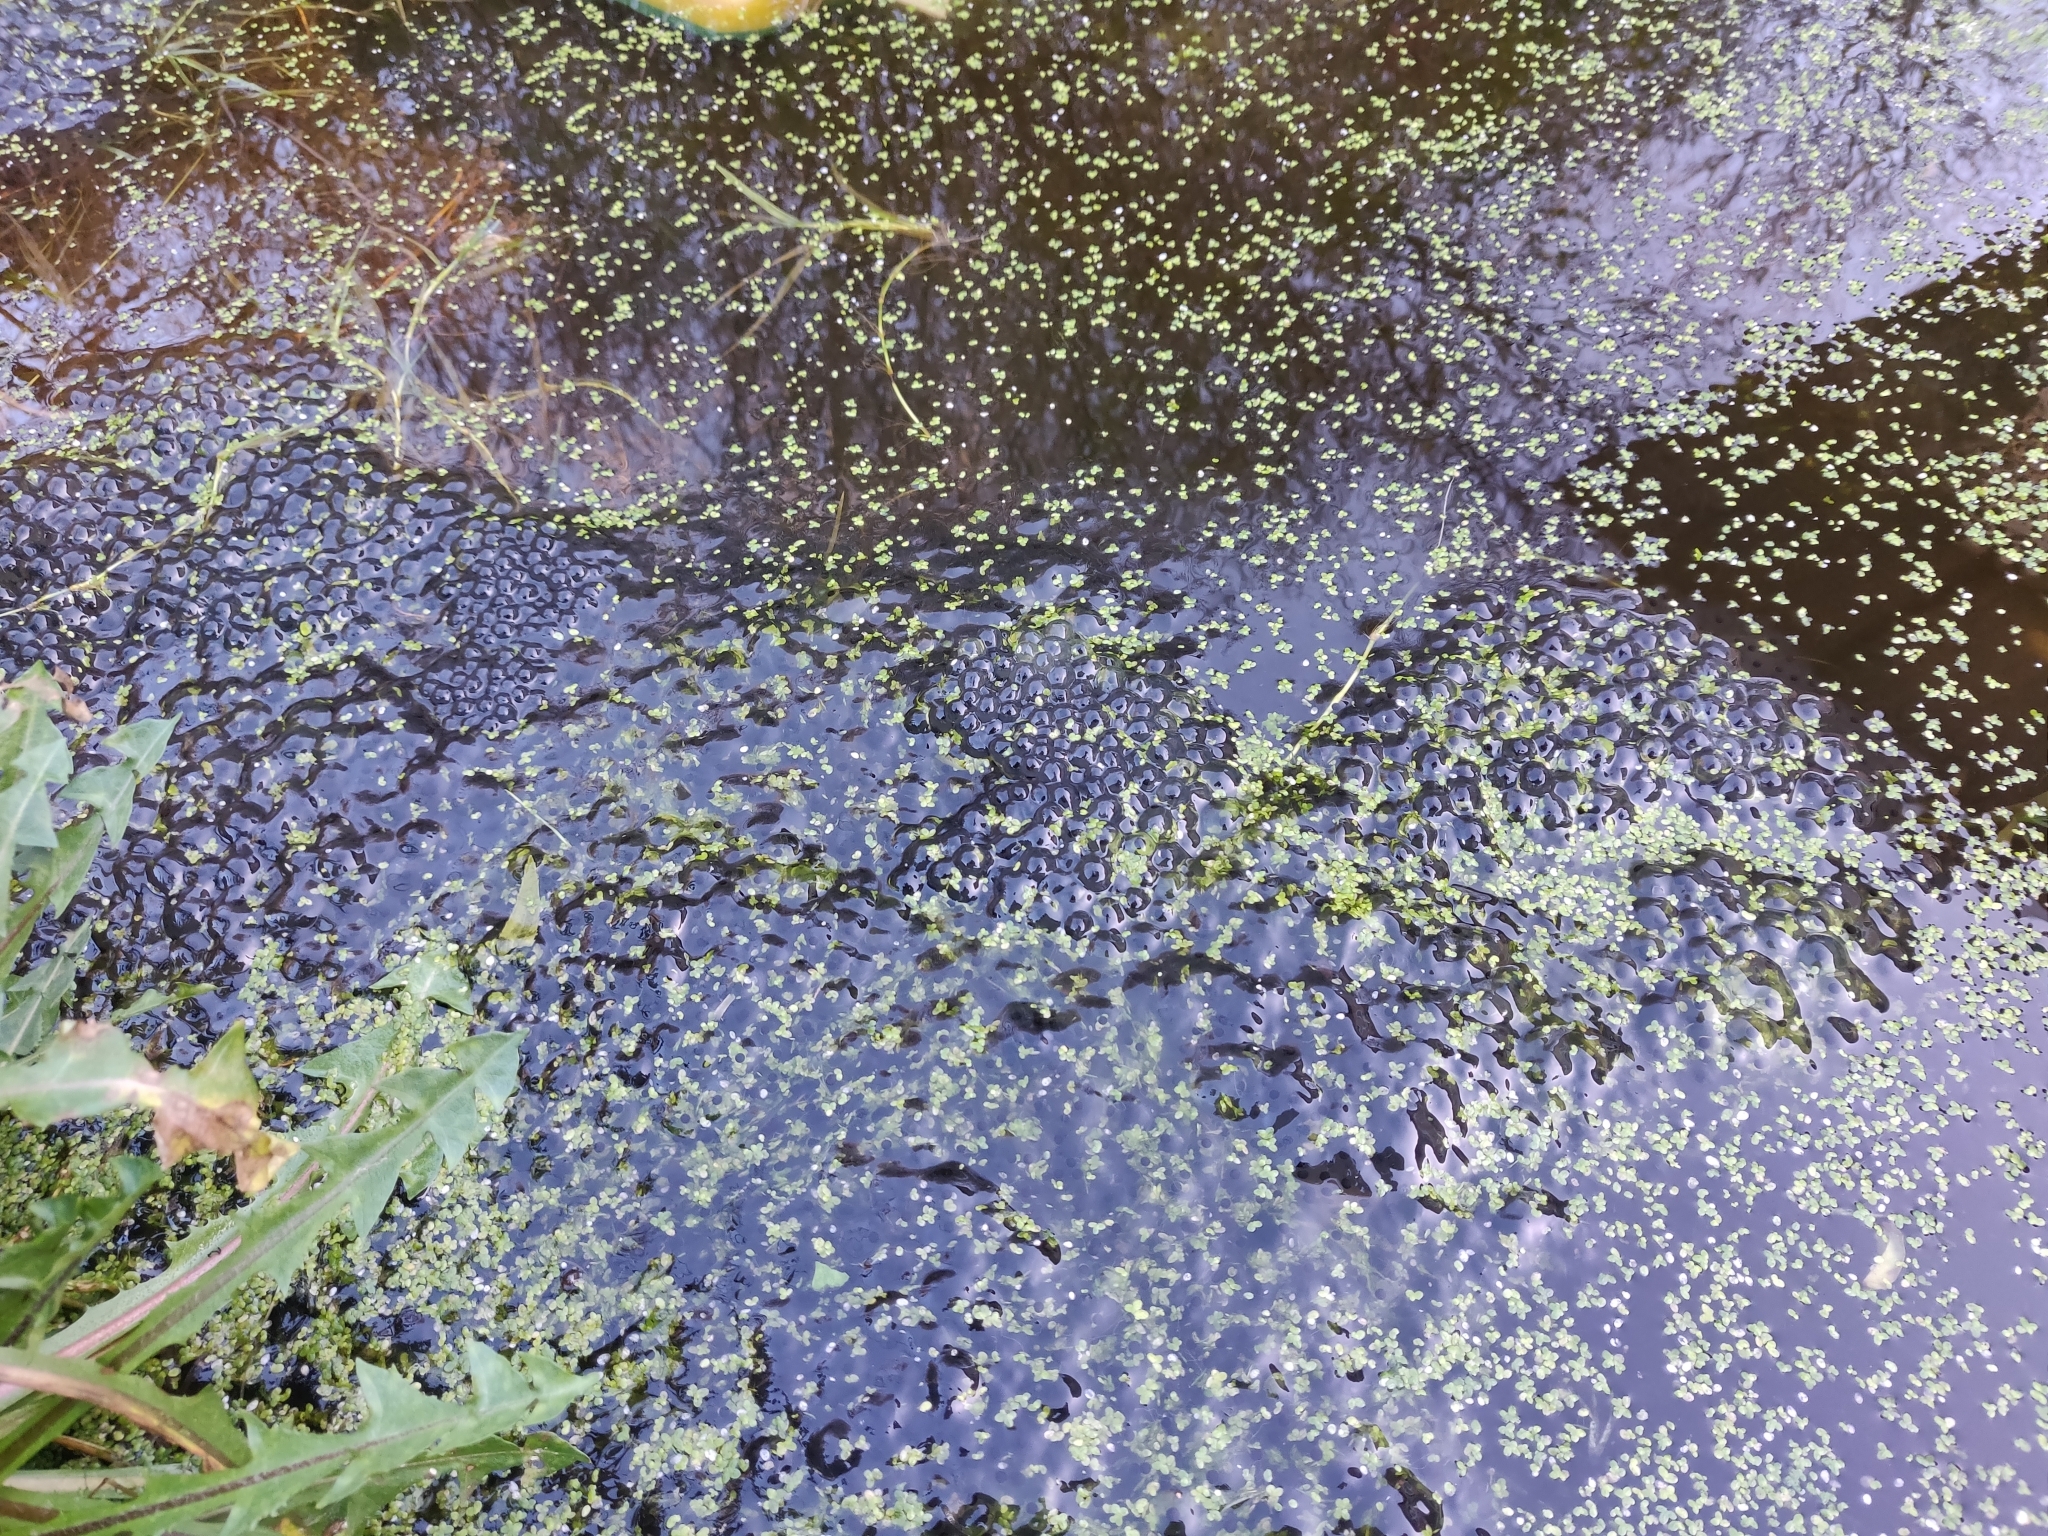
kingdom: Animalia
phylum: Chordata
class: Amphibia
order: Anura
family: Ranidae
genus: Rana
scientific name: Rana temporaria
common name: Common frog
